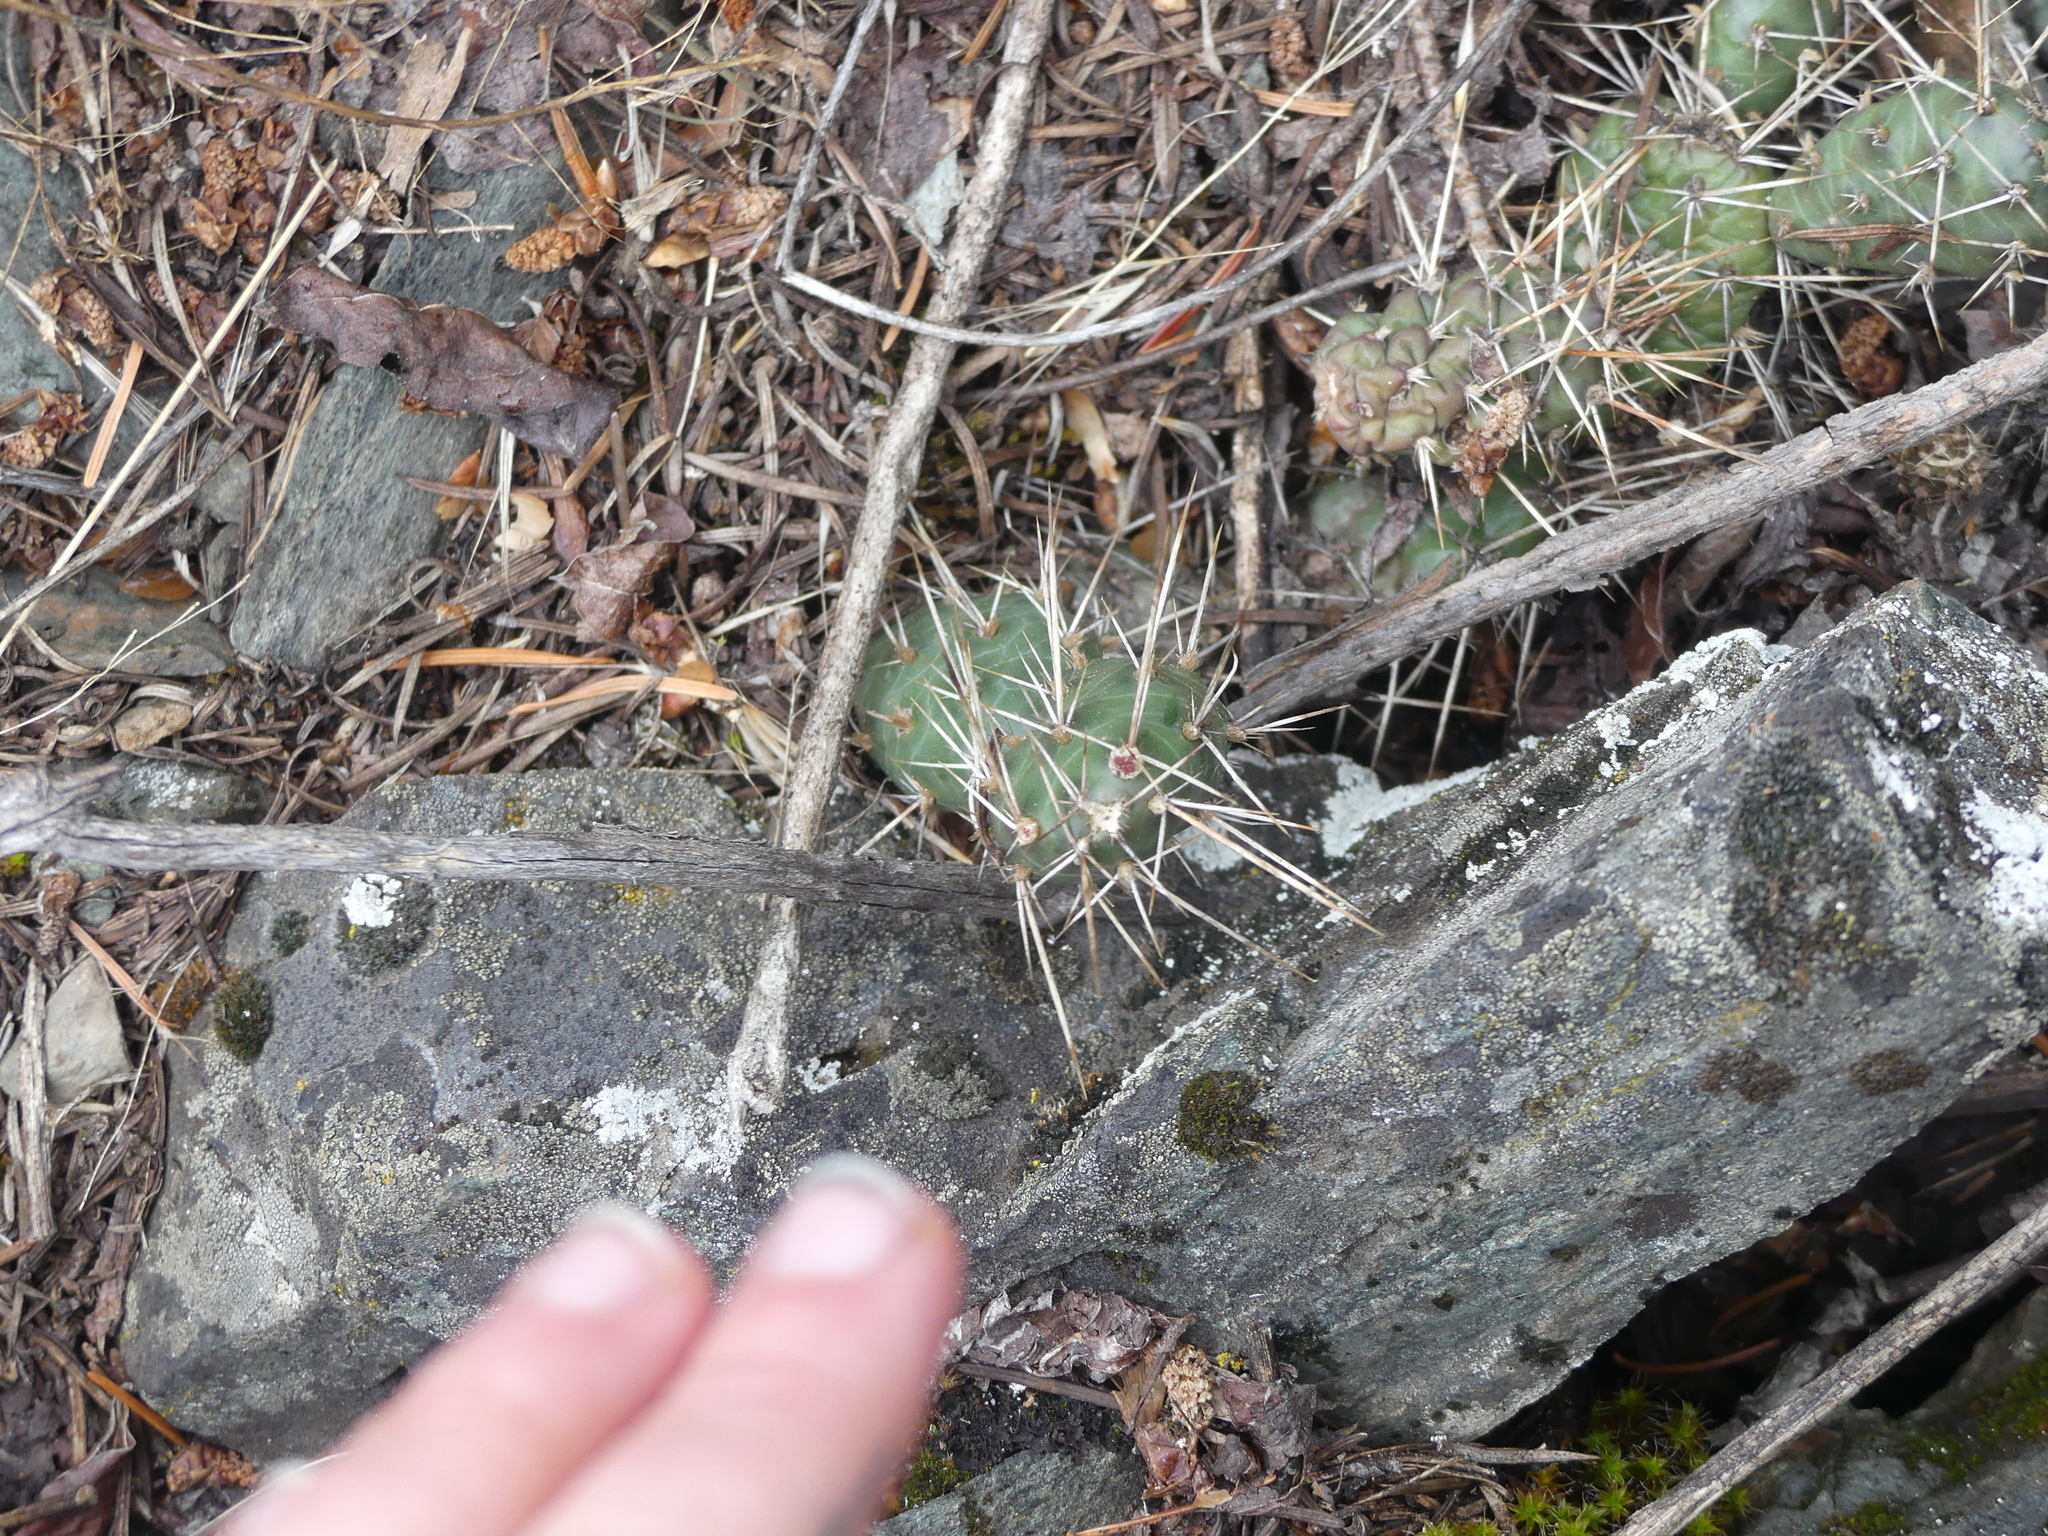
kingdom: Plantae
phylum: Tracheophyta
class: Magnoliopsida
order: Caryophyllales
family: Cactaceae
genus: Opuntia
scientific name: Opuntia fragilis
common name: Brittle cactus
